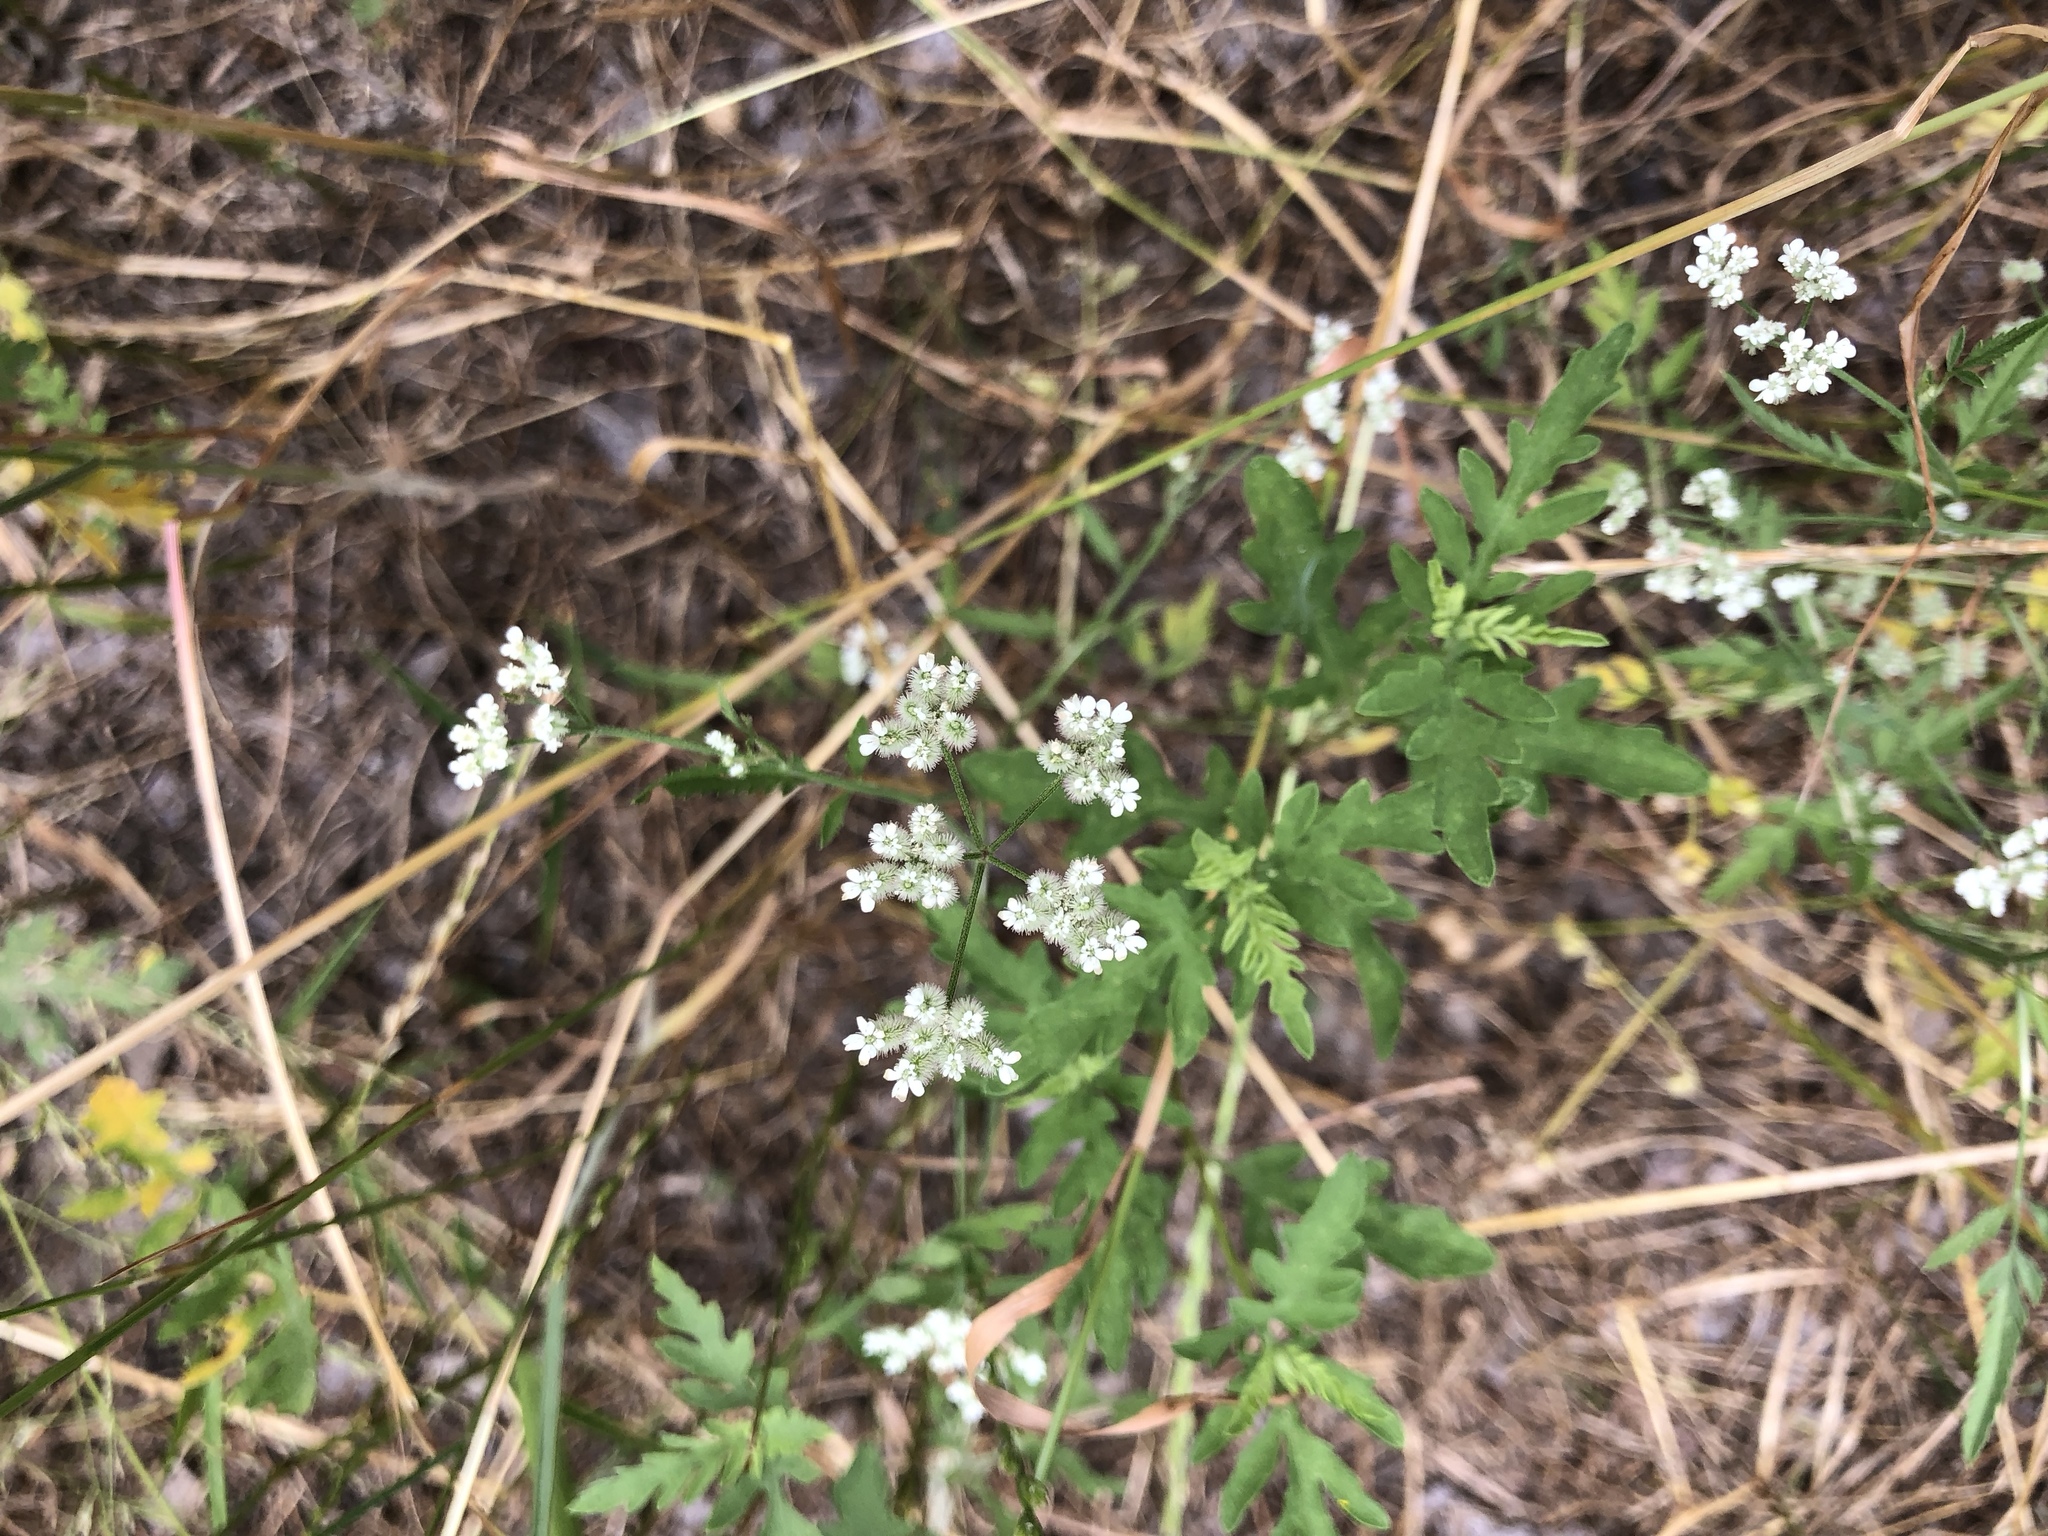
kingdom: Plantae
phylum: Tracheophyta
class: Magnoliopsida
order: Apiales
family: Apiaceae
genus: Torilis
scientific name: Torilis arvensis
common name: Spreading hedge-parsley
